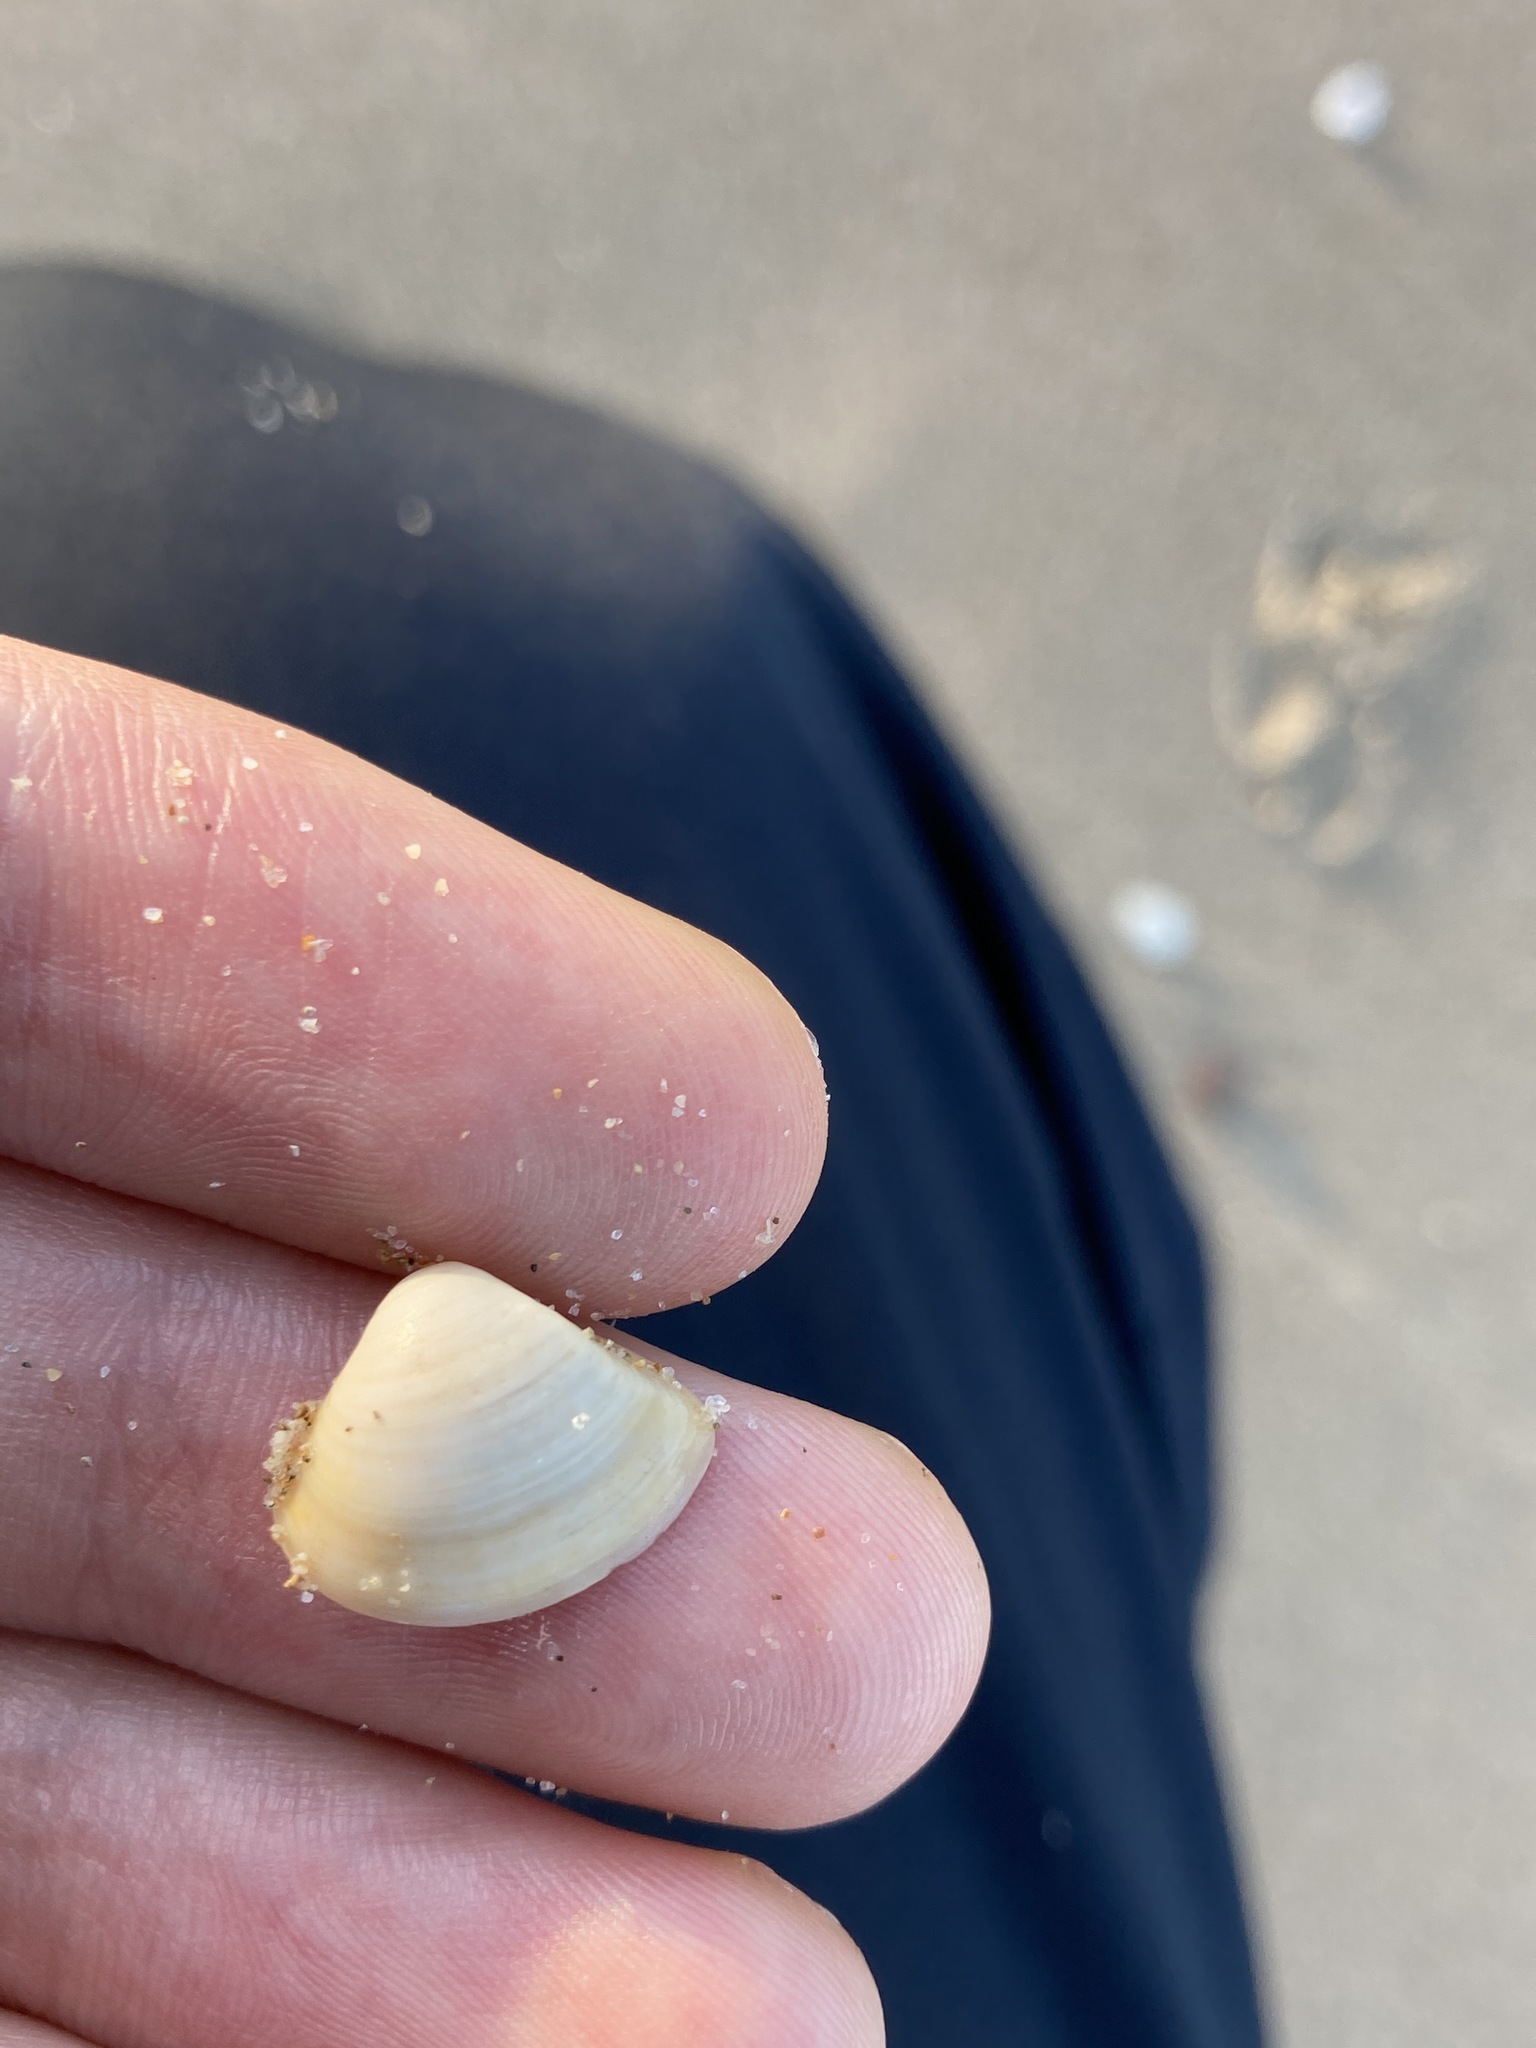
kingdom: Animalia
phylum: Mollusca
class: Bivalvia
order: Venerida
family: Mactridae
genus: Spisula
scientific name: Spisula trigonella
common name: Trigonal mactra
